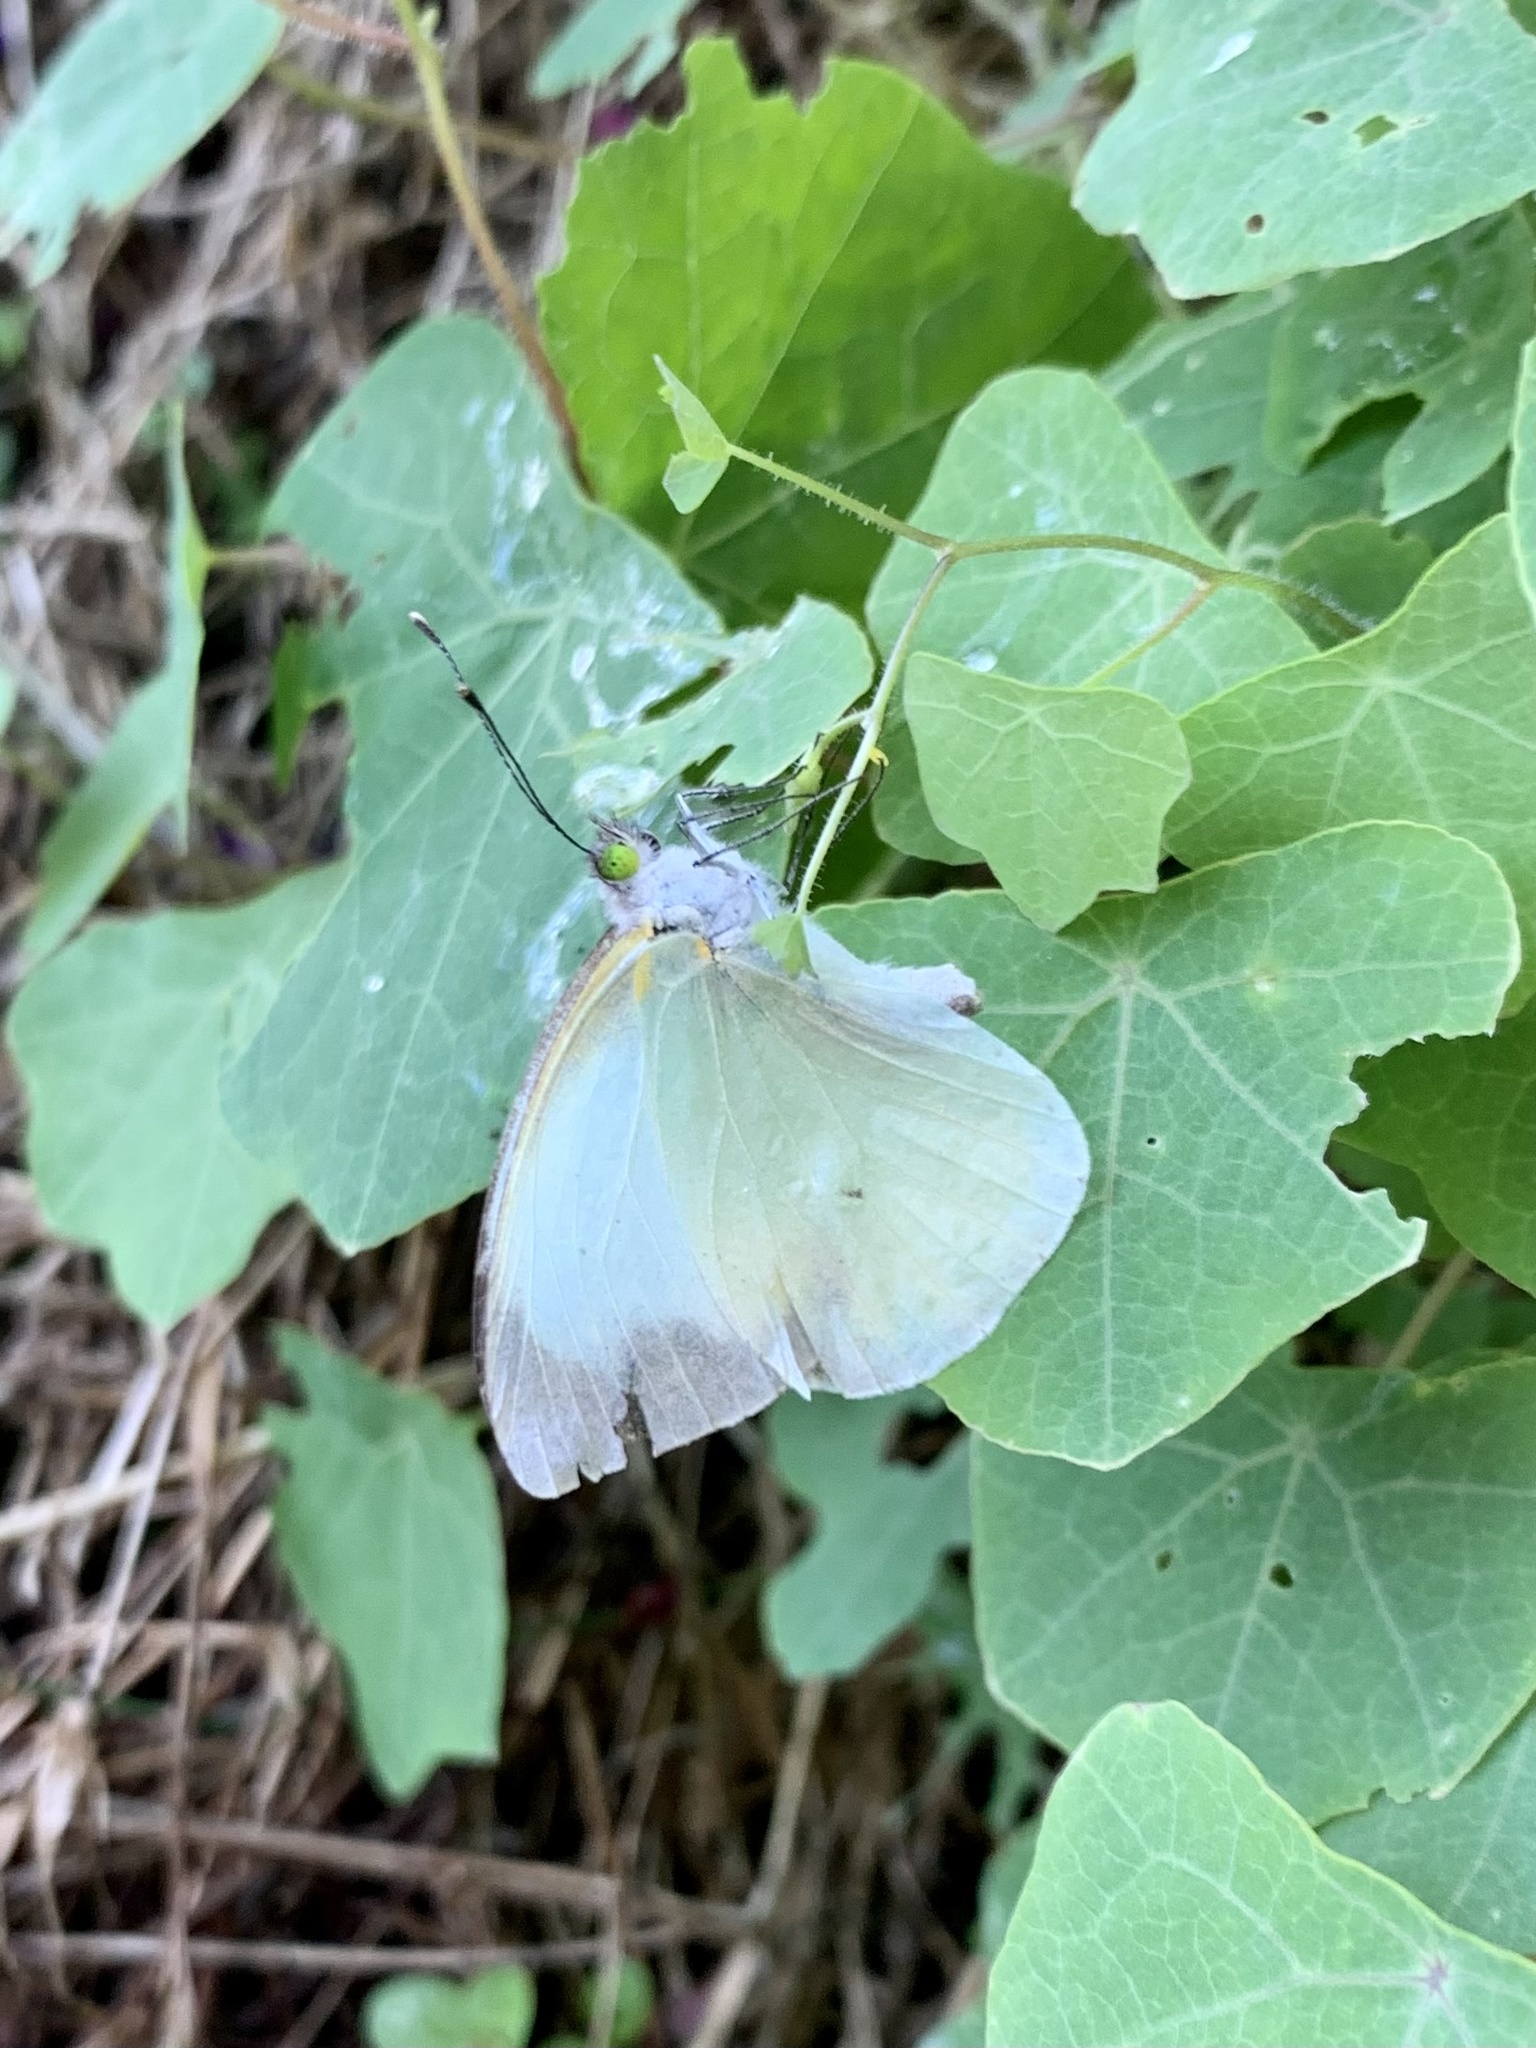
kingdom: Animalia
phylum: Arthropoda
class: Insecta
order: Lepidoptera
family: Pieridae
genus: Leptophobia
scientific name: Leptophobia aripa
